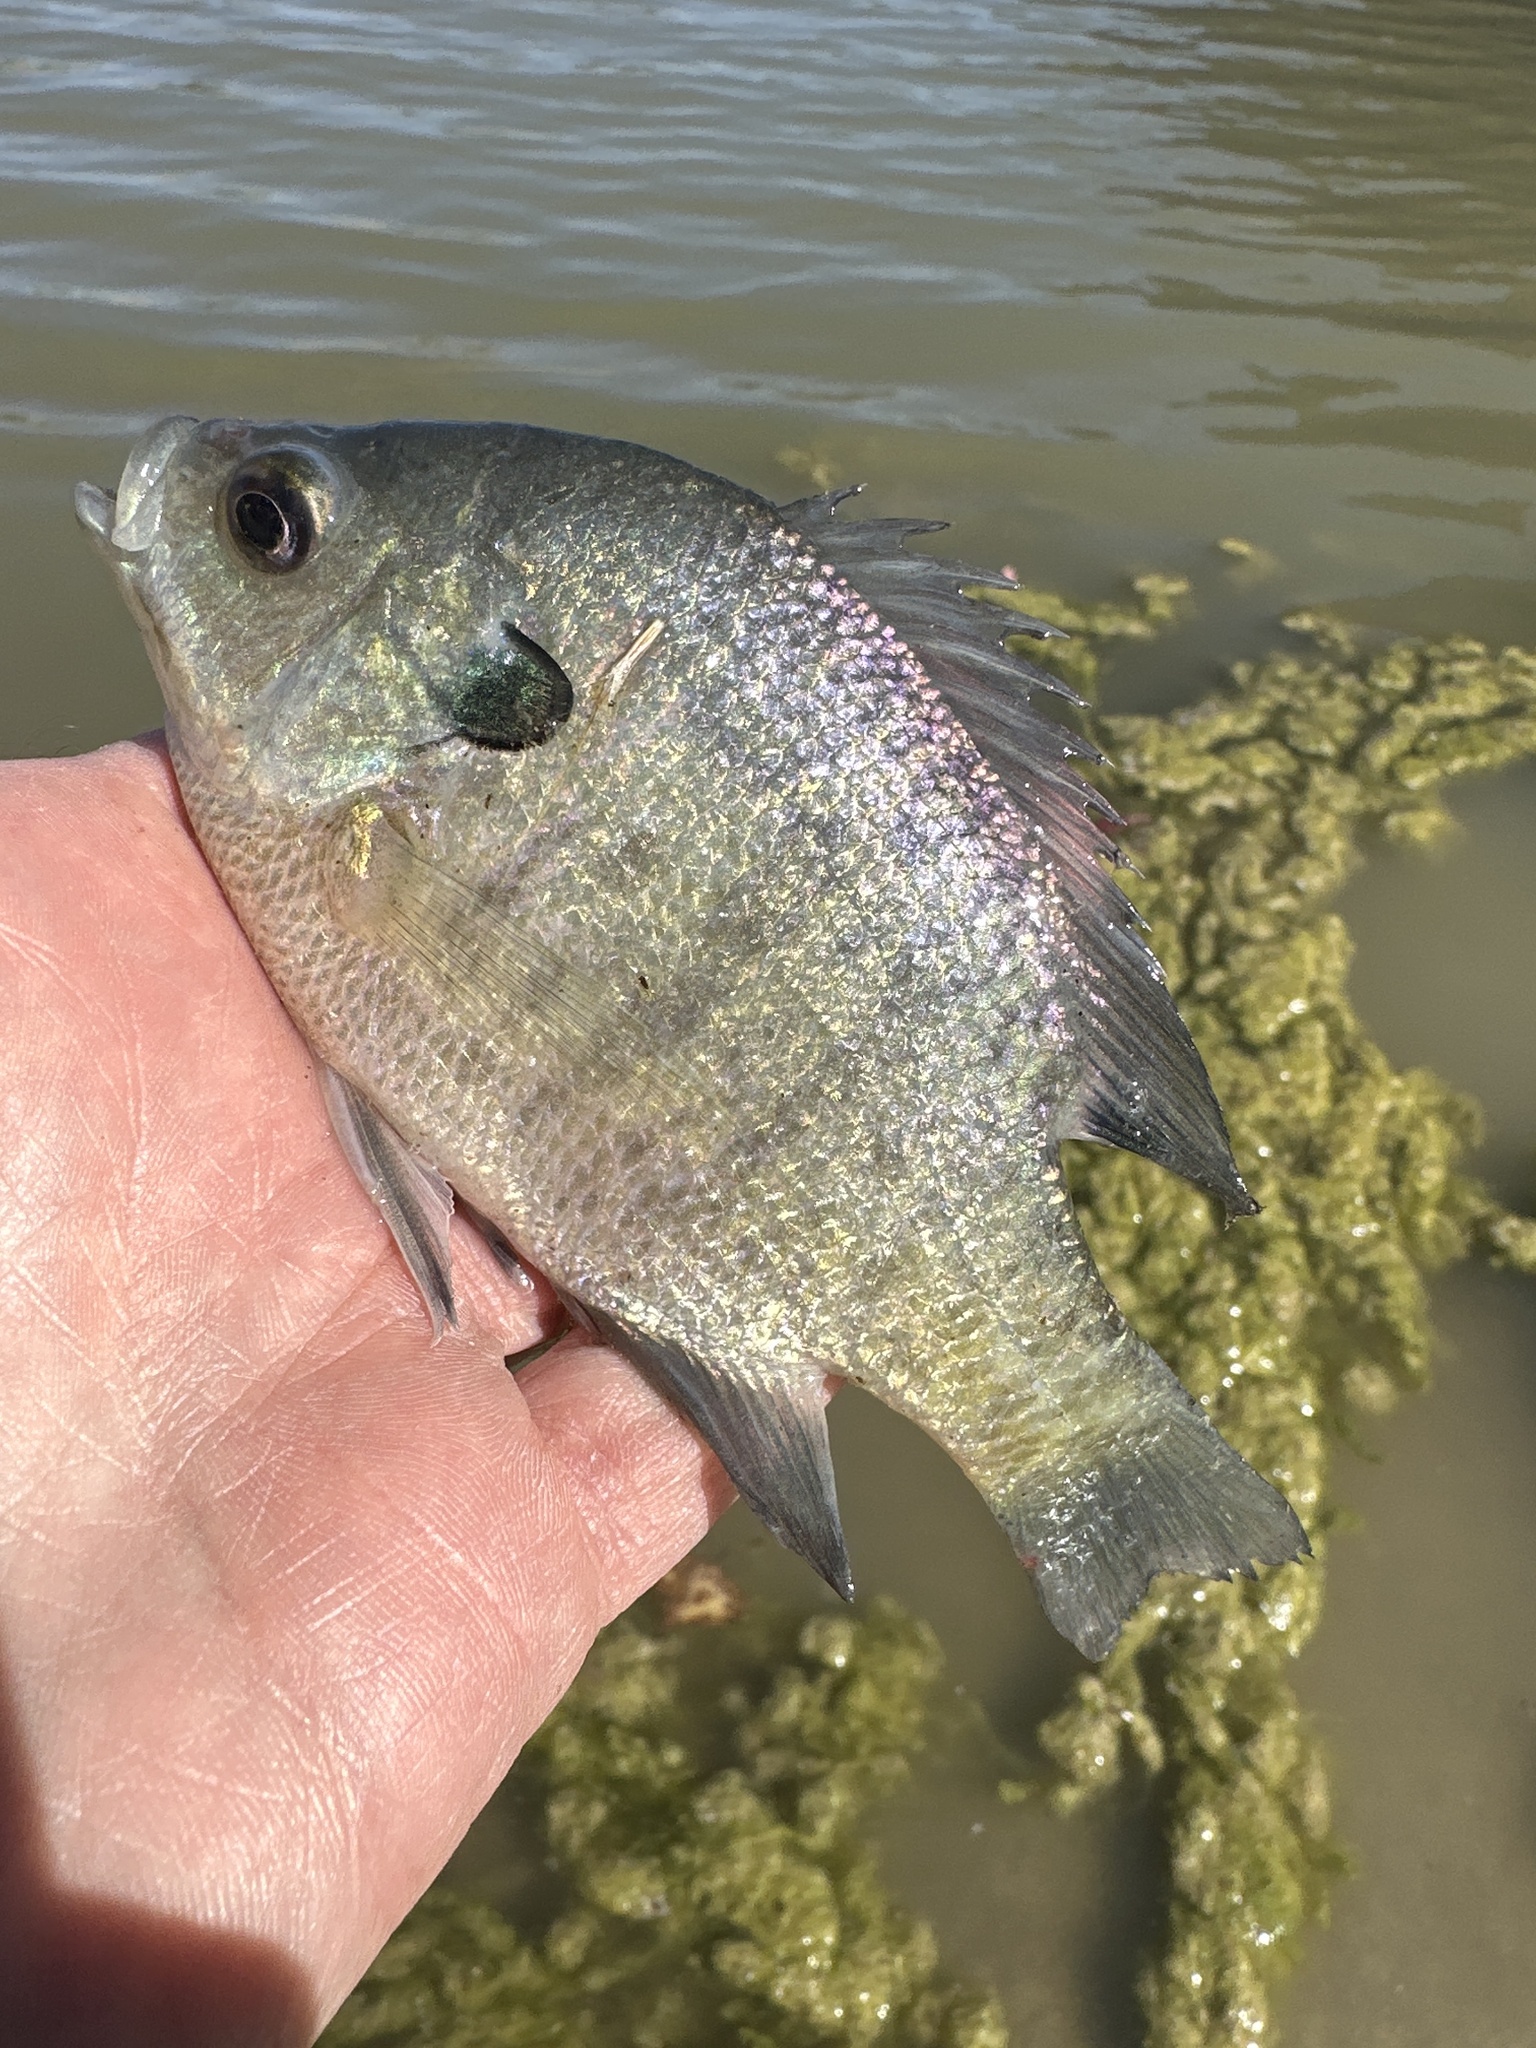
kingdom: Animalia
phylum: Chordata
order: Perciformes
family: Centrarchidae
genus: Lepomis
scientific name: Lepomis macrochirus
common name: Bluegill
